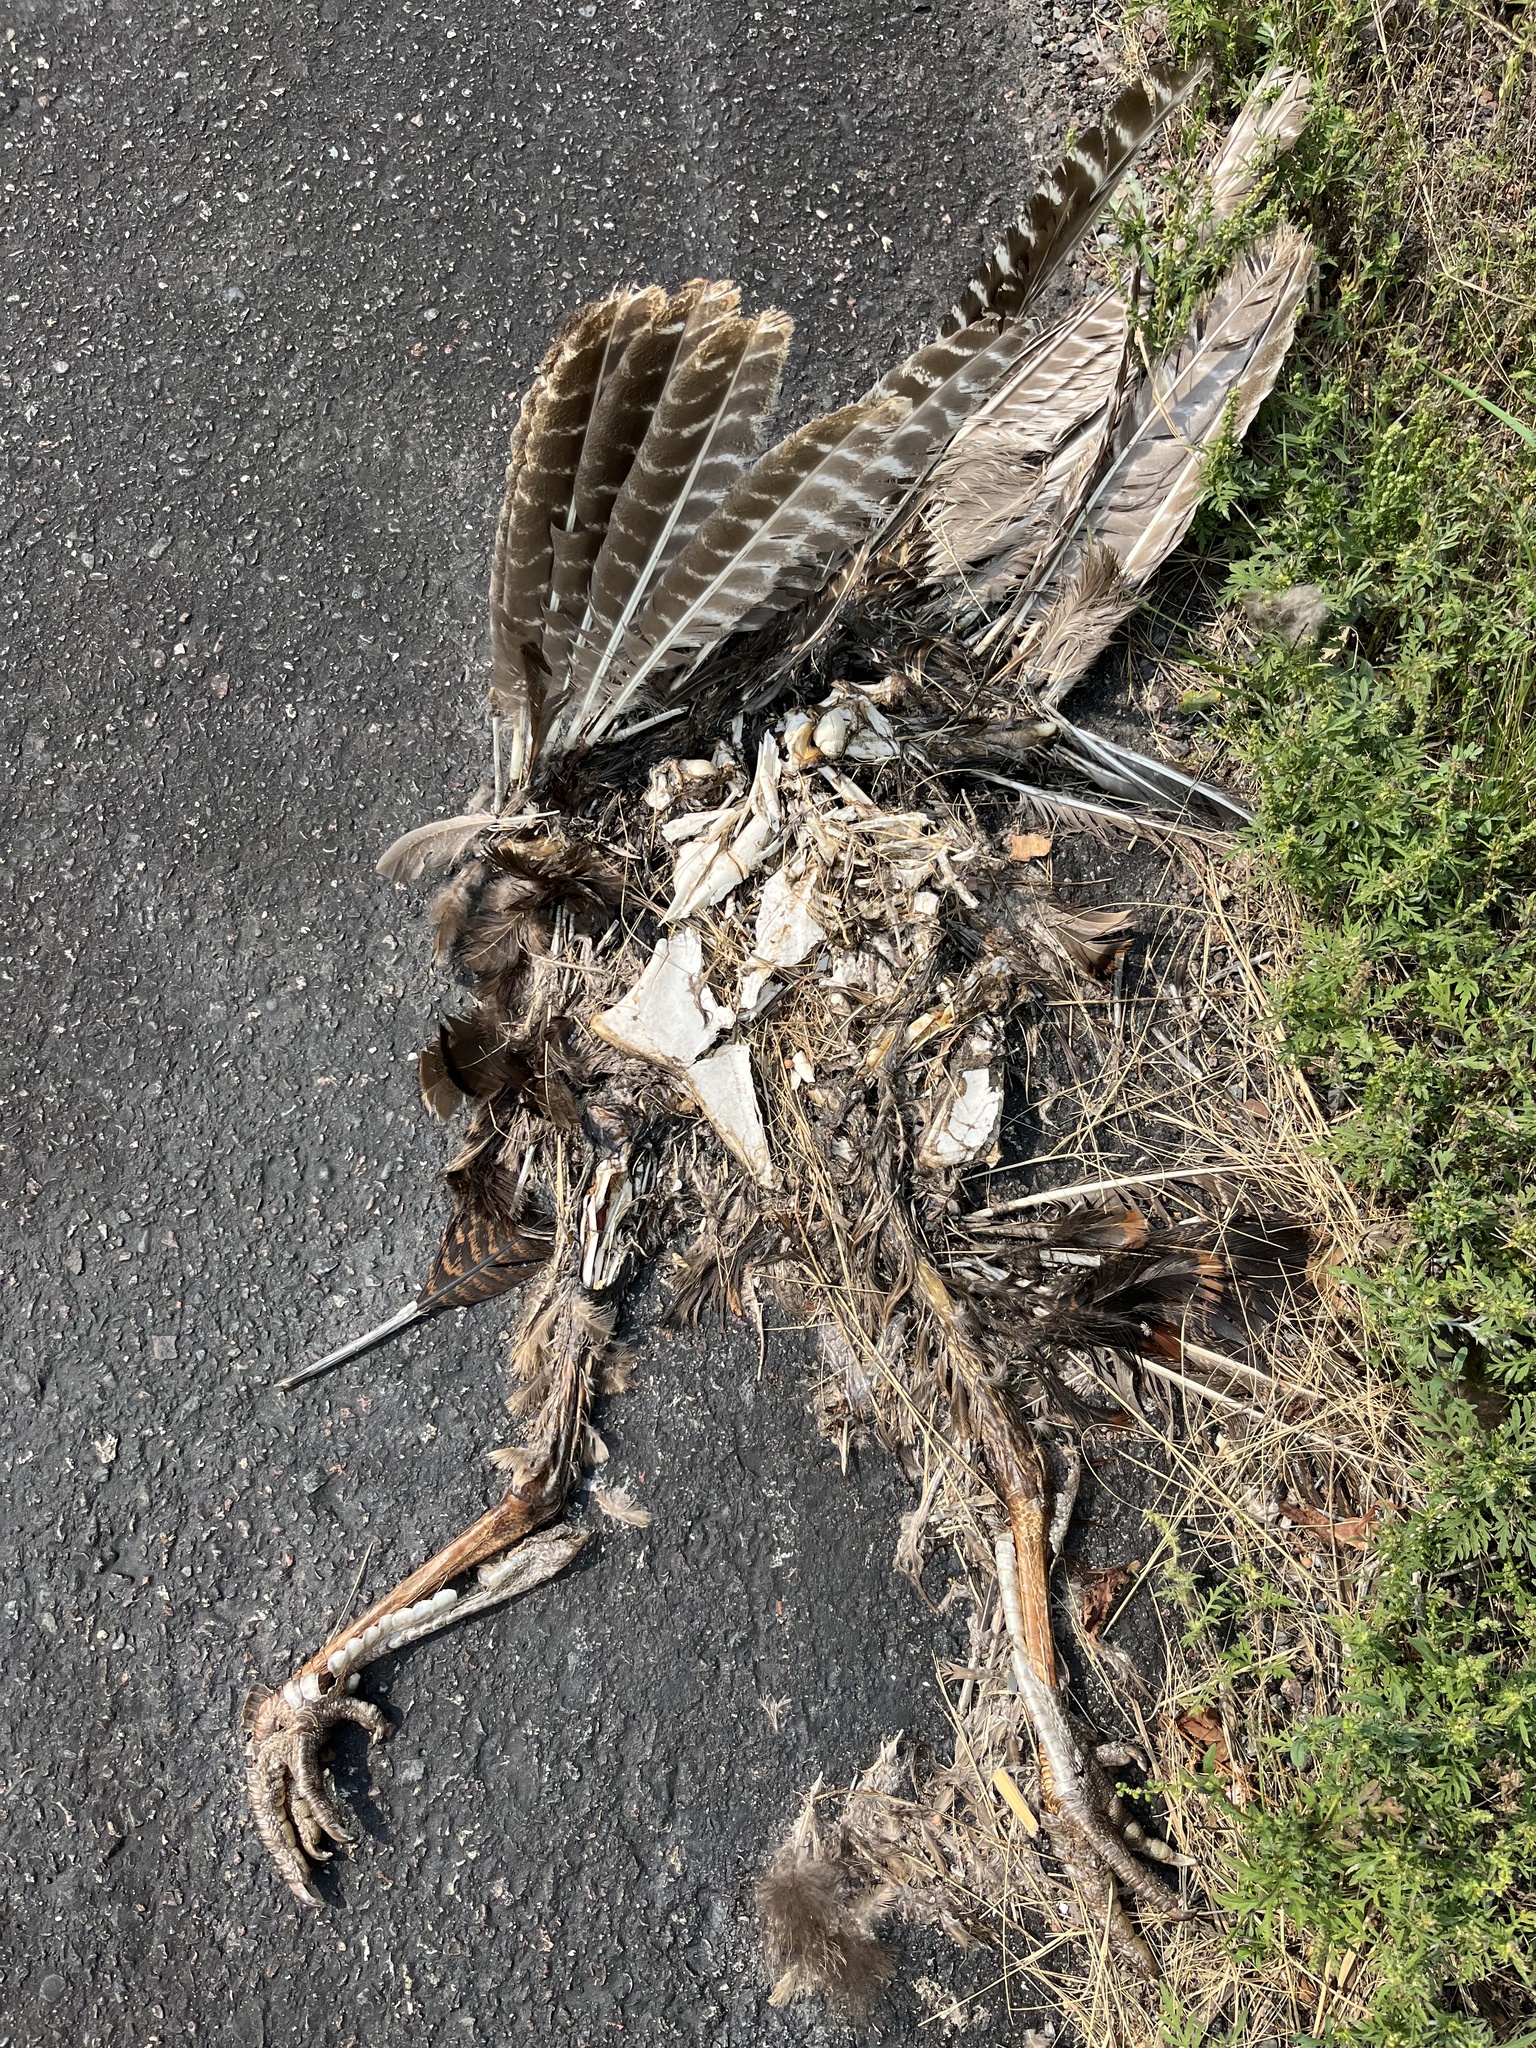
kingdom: Animalia
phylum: Chordata
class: Aves
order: Galliformes
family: Phasianidae
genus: Meleagris
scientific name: Meleagris gallopavo
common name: Wild turkey
